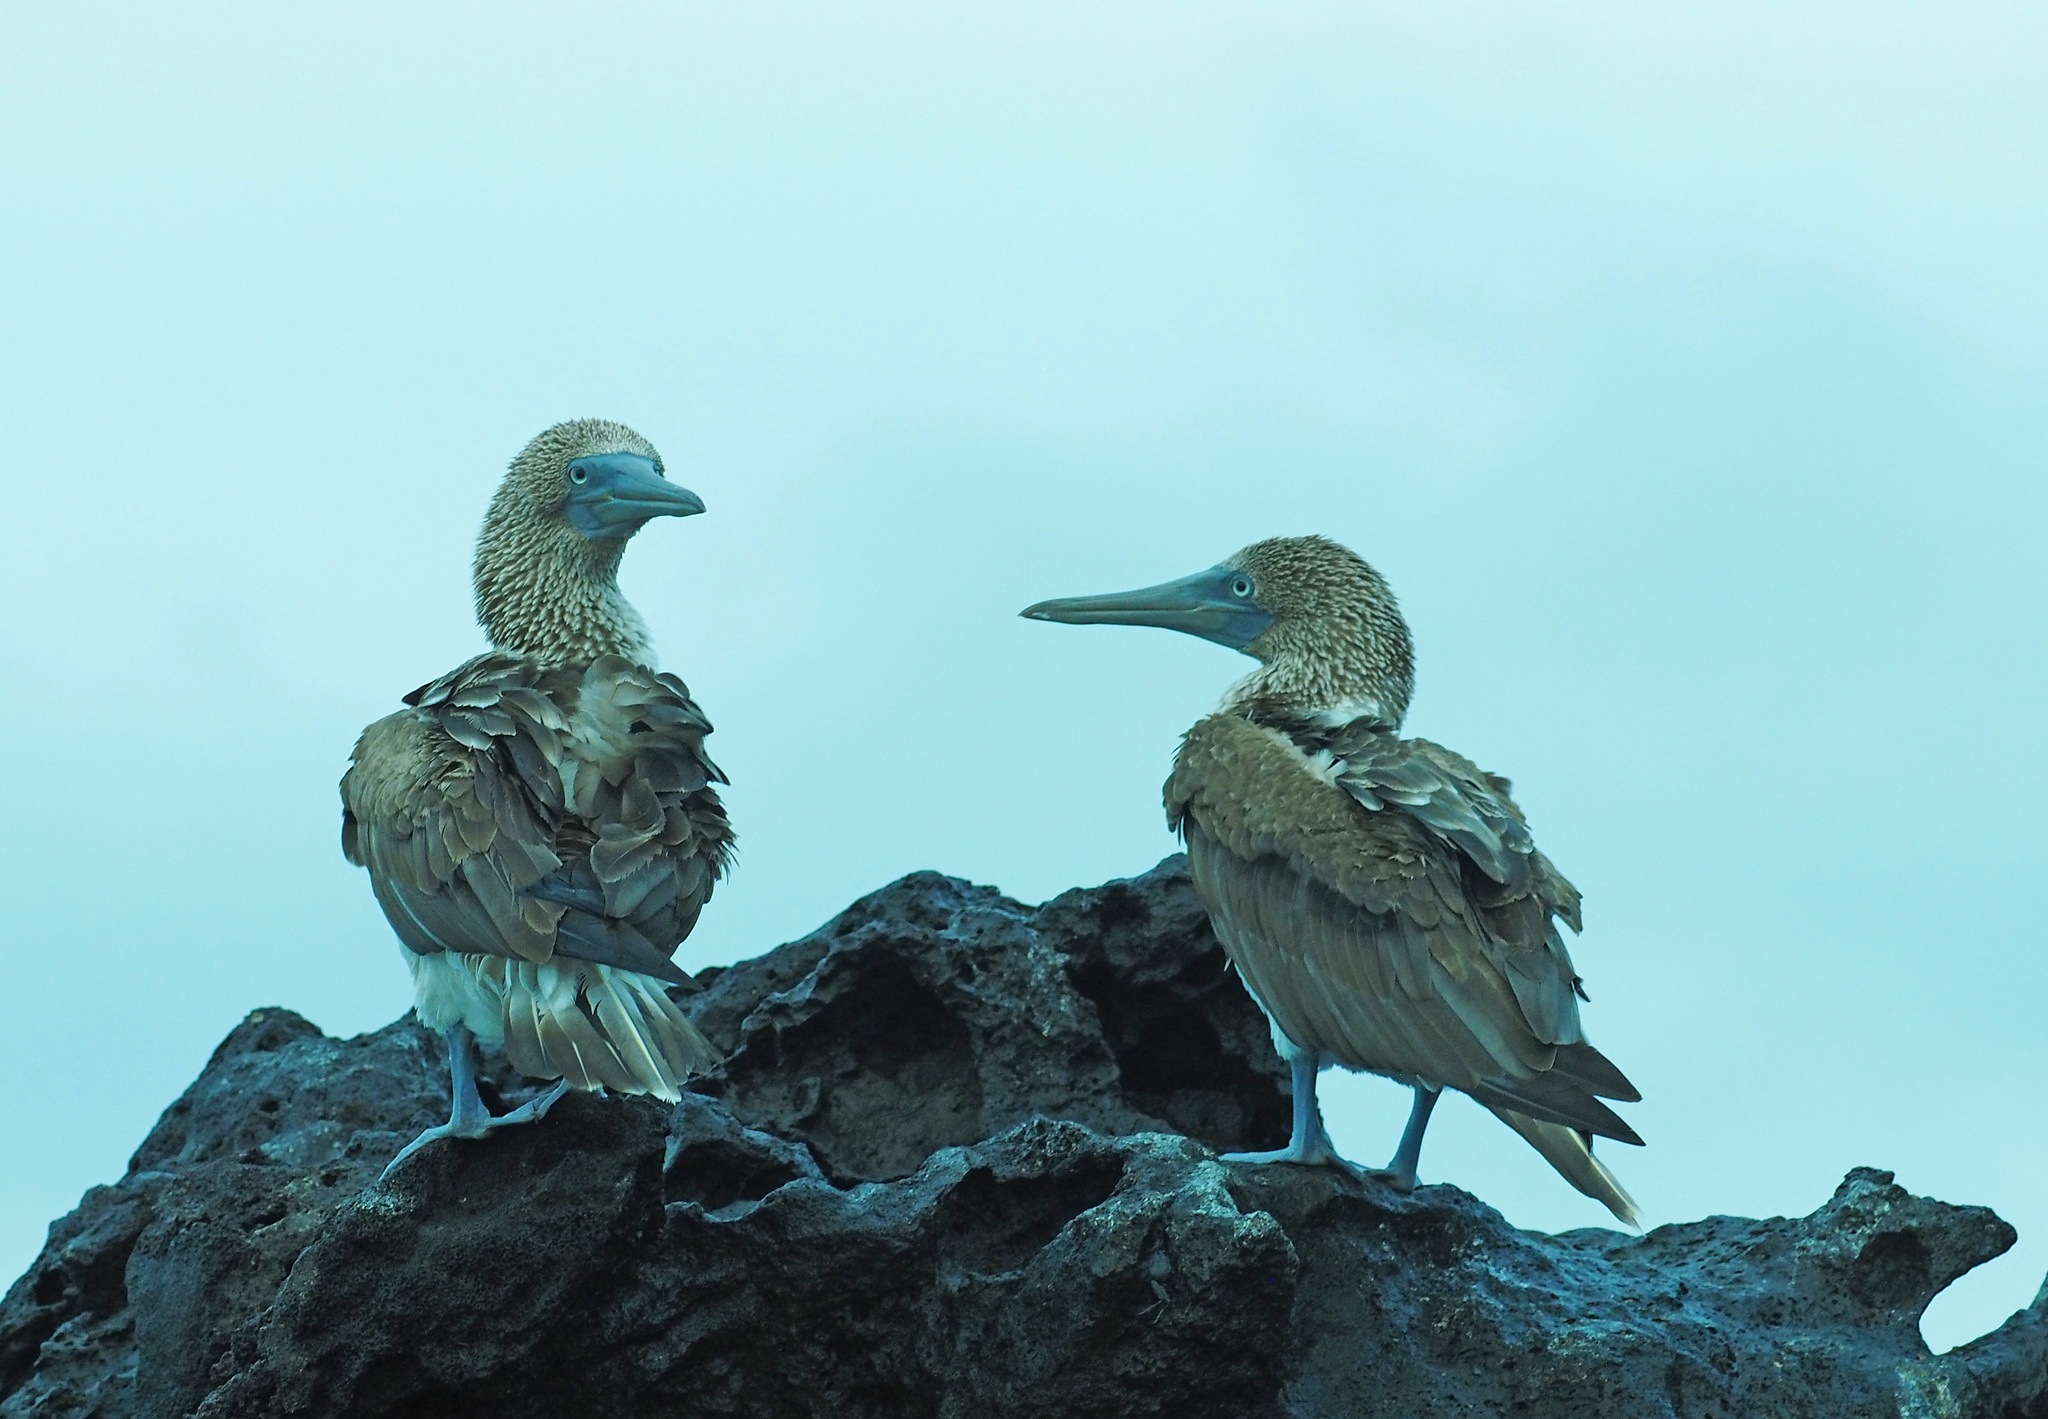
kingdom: Animalia
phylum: Chordata
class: Aves
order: Suliformes
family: Sulidae
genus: Sula
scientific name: Sula nebouxii
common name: Blue-footed booby
